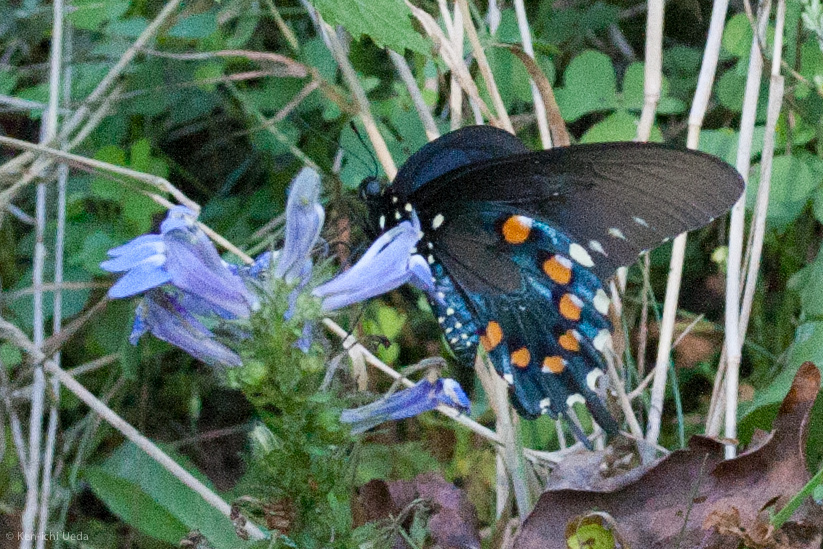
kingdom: Animalia
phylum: Arthropoda
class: Insecta
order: Lepidoptera
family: Papilionidae
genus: Battus
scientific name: Battus philenor
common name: Pipevine swallowtail
